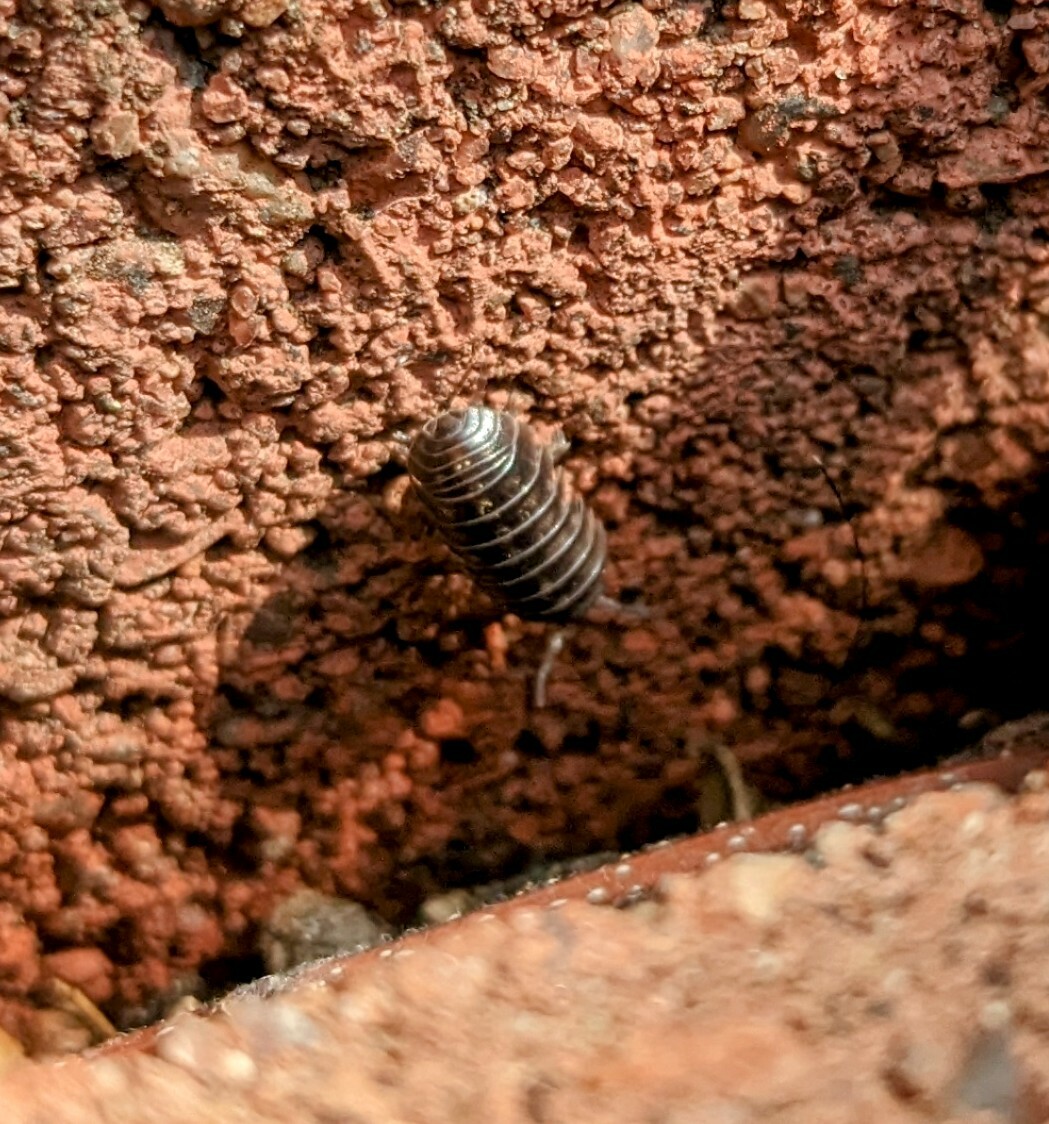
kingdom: Animalia
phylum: Arthropoda
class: Malacostraca
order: Isopoda
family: Armadillidiidae
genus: Armadillidium
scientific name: Armadillidium vulgare
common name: Common pill woodlouse
